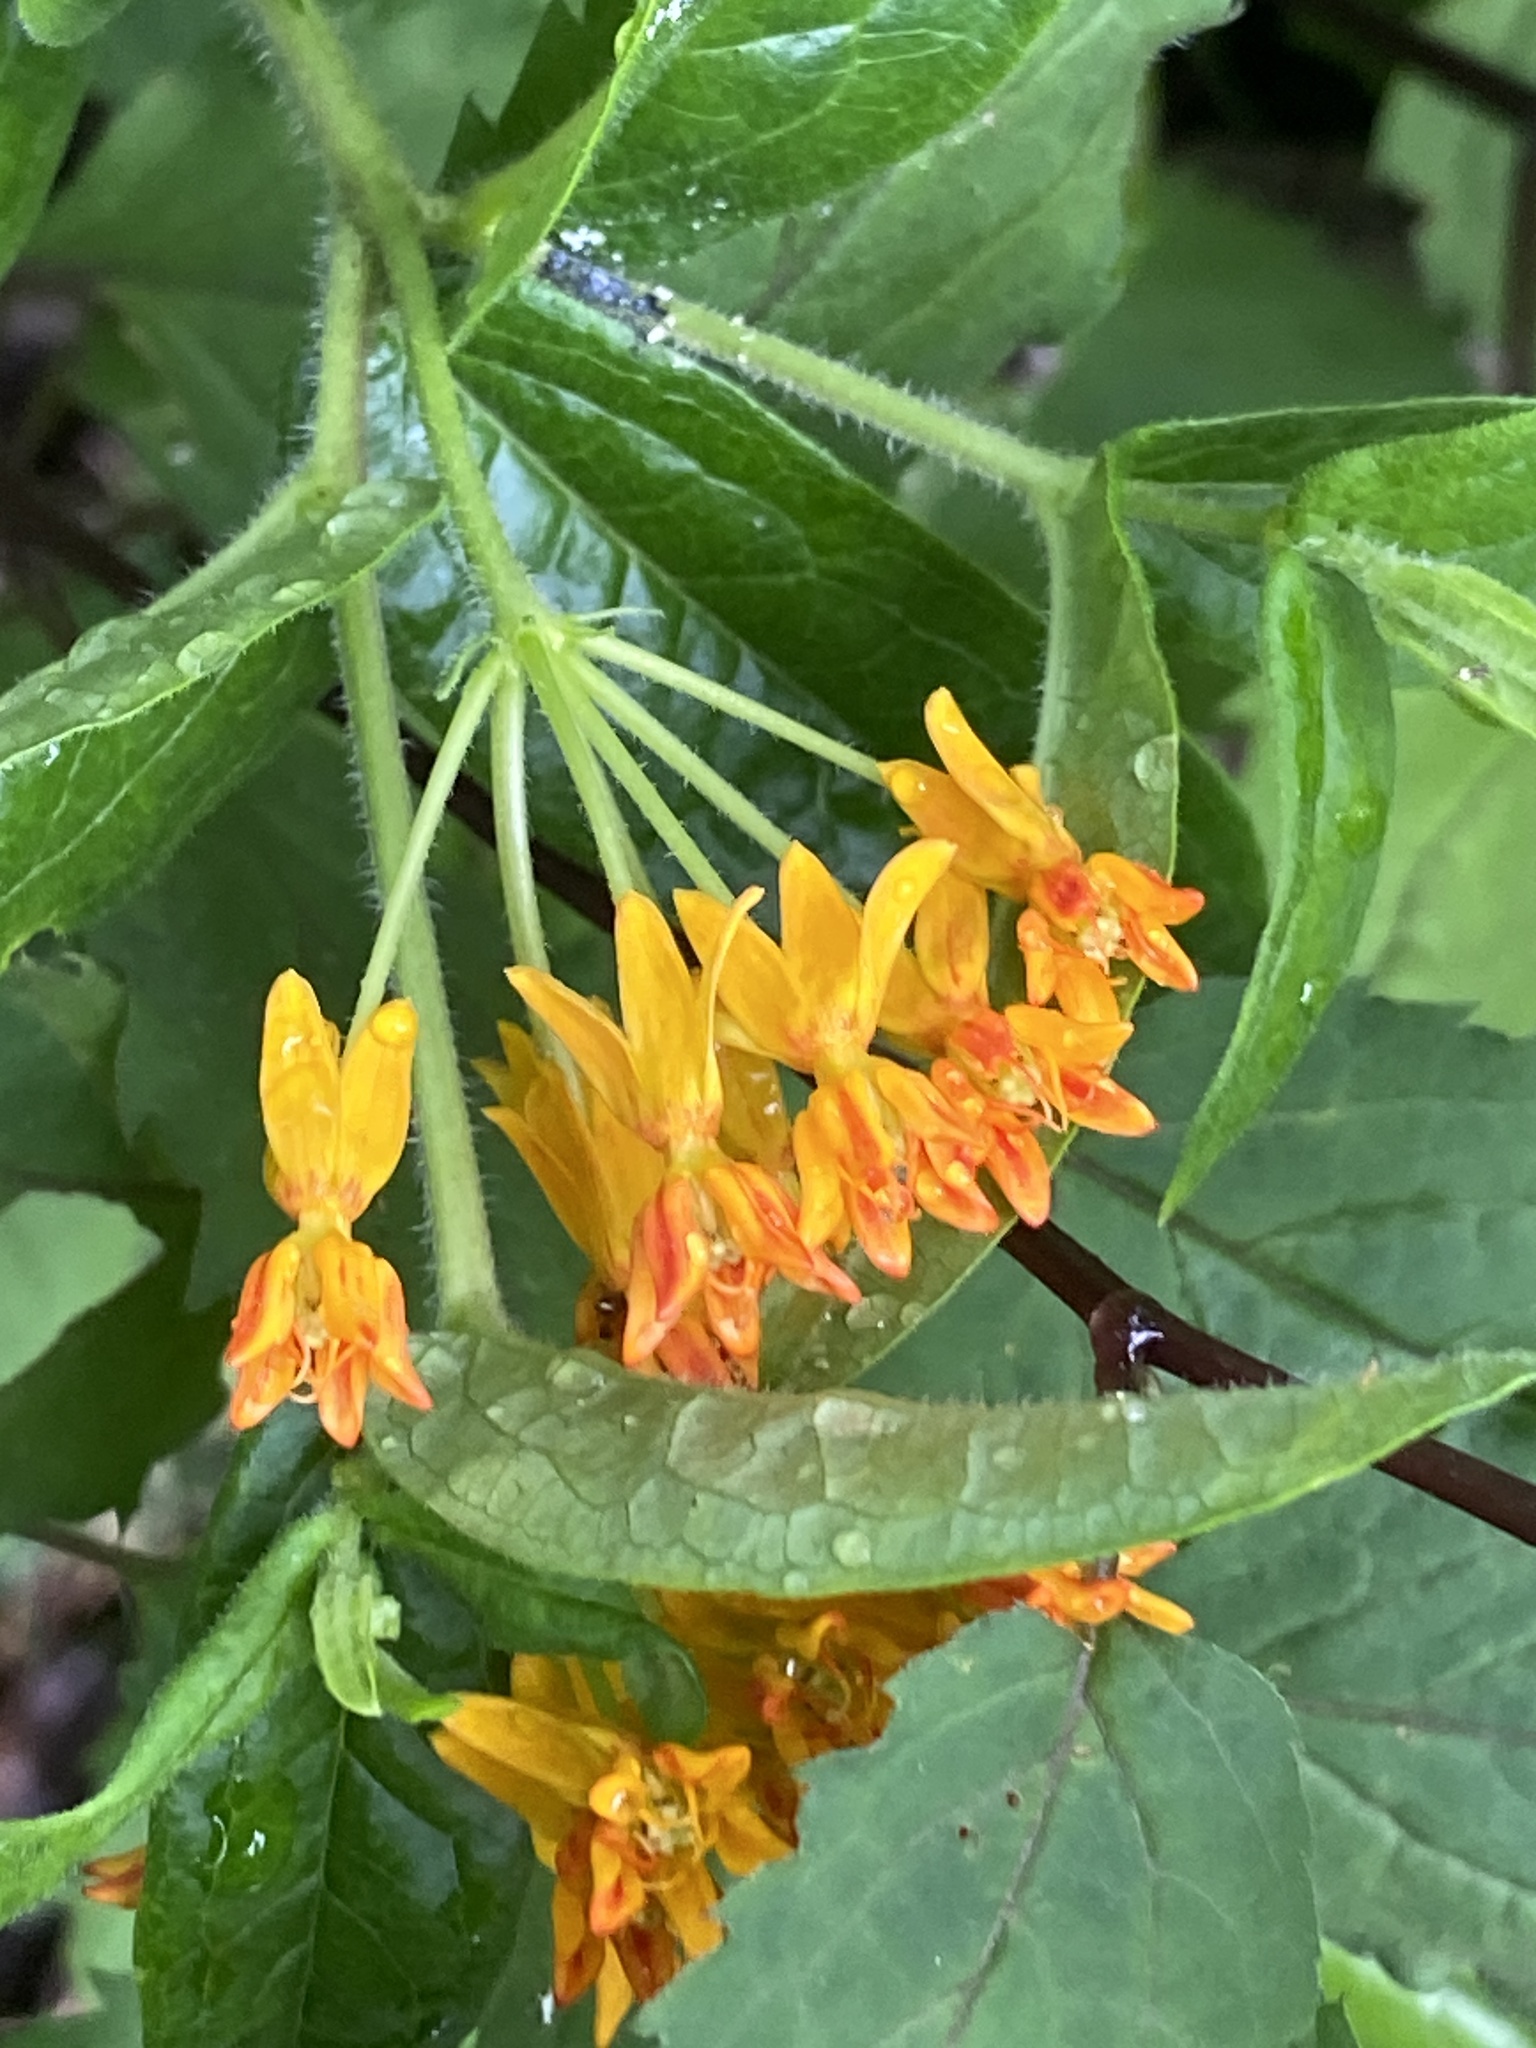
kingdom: Plantae
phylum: Tracheophyta
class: Magnoliopsida
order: Gentianales
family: Apocynaceae
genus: Asclepias
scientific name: Asclepias tuberosa
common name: Butterfly milkweed
